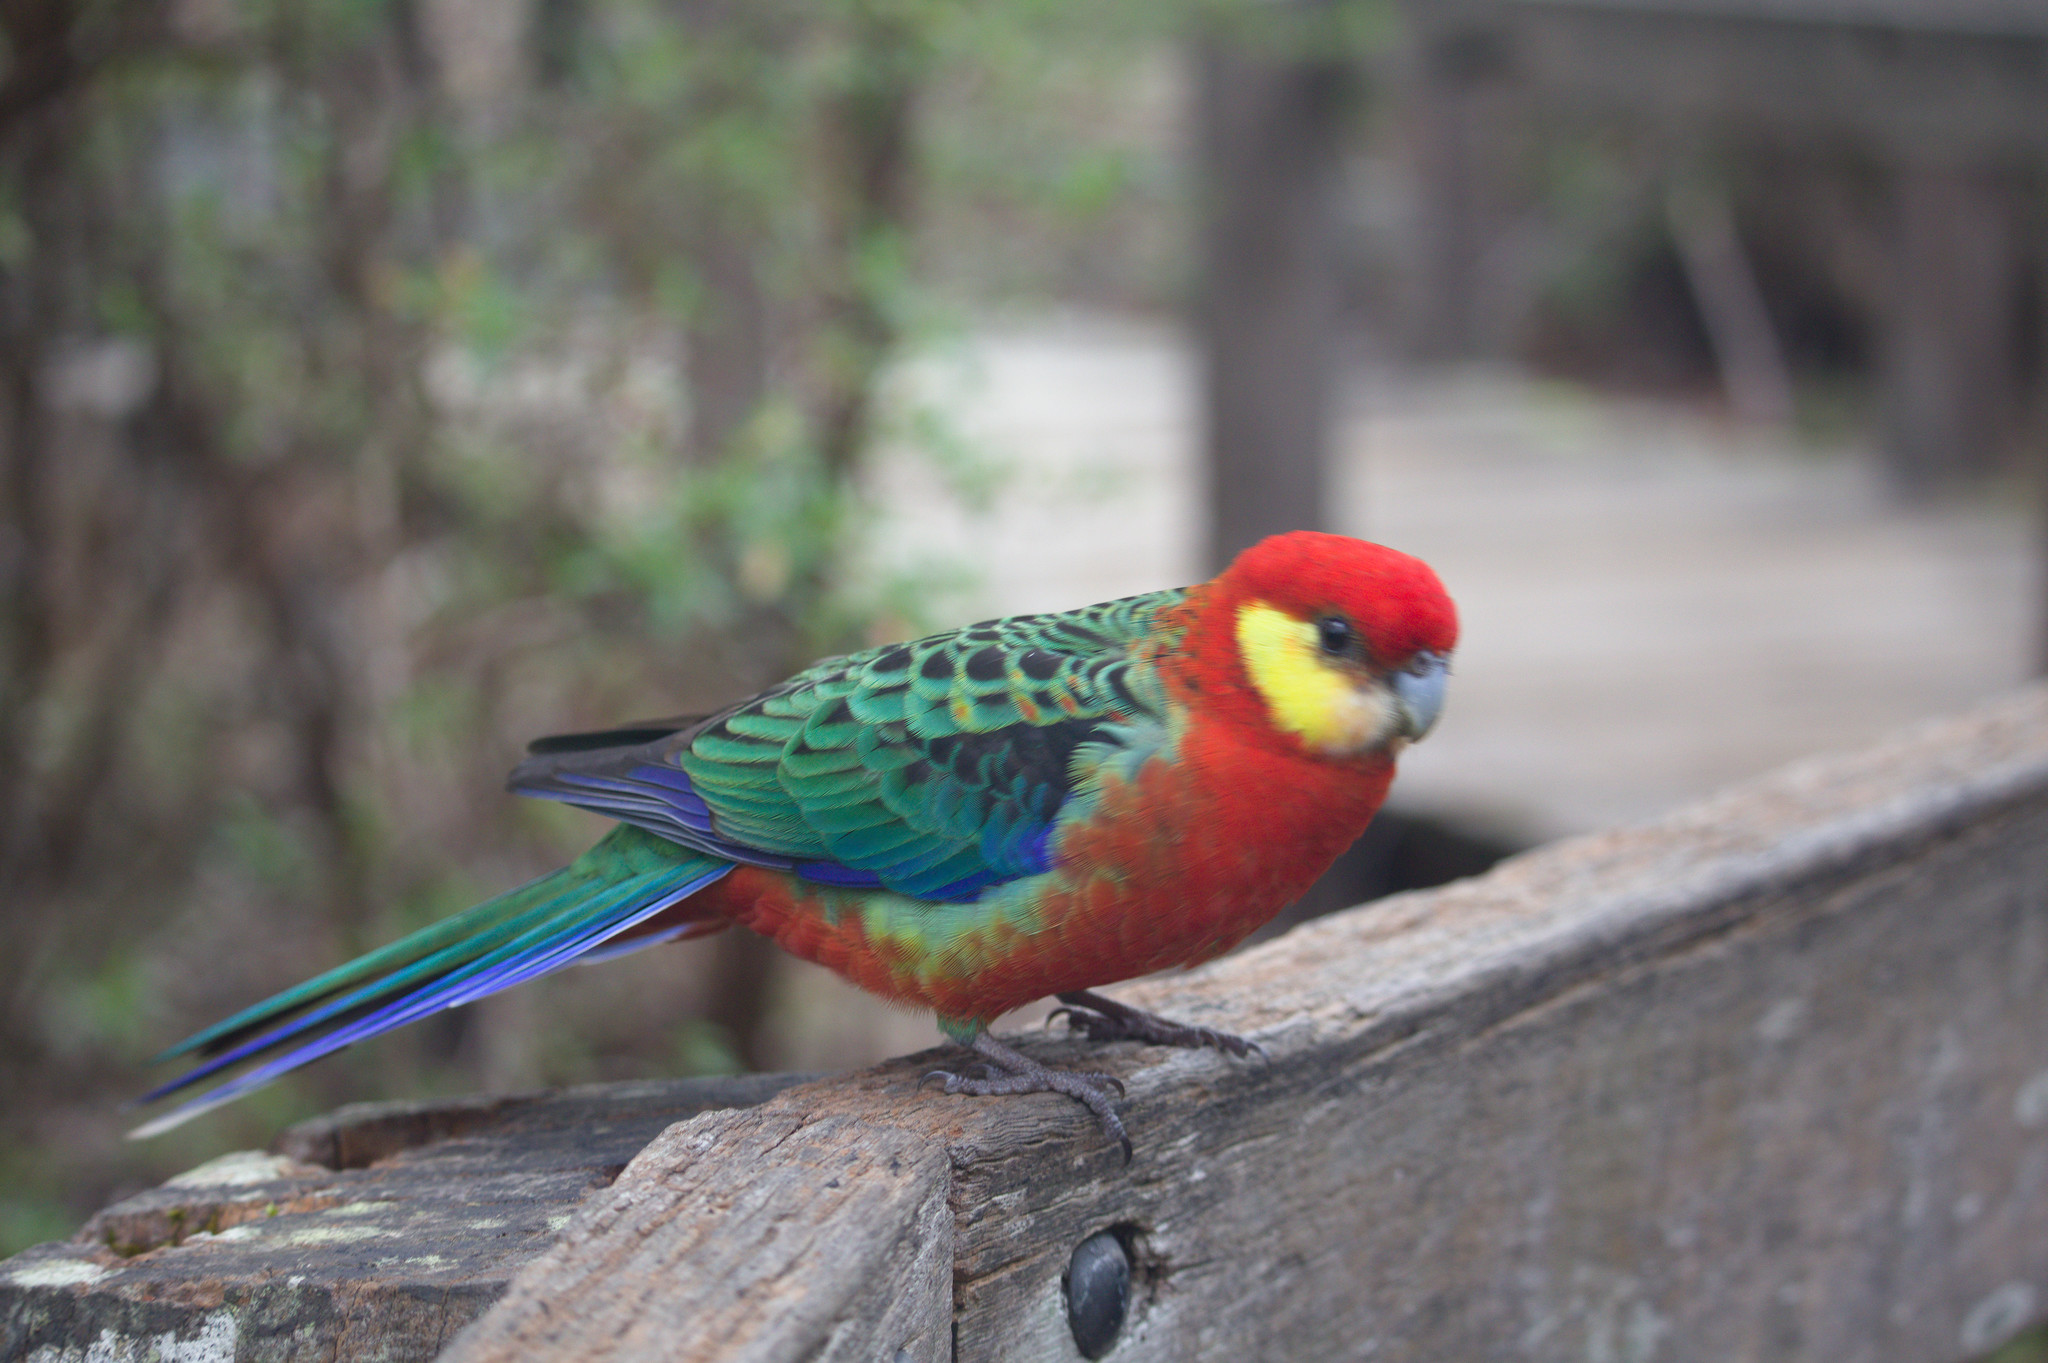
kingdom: Animalia
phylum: Chordata
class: Aves
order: Psittaciformes
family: Psittacidae
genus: Platycercus
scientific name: Platycercus icterotis
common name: Western rosella
